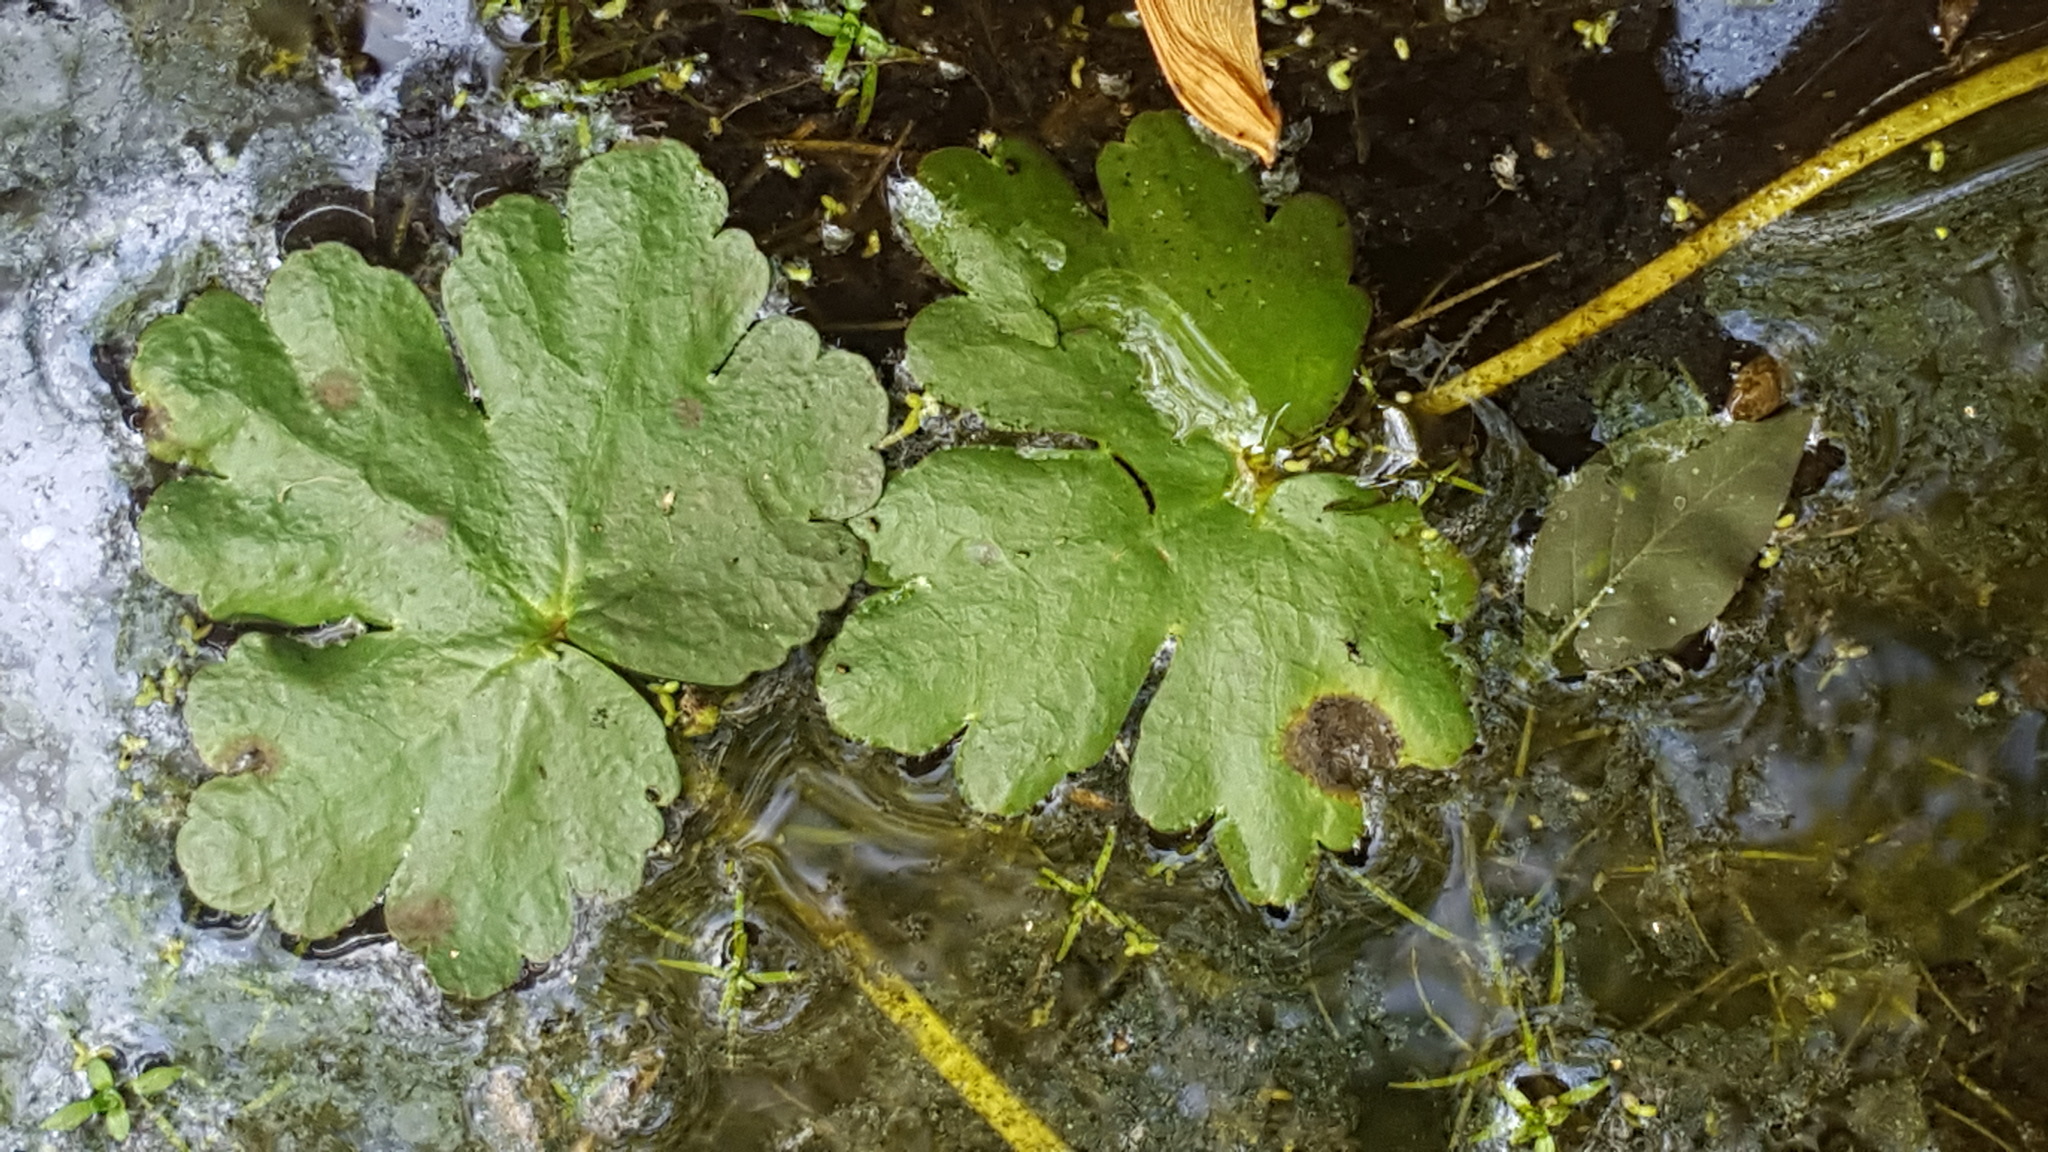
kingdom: Plantae
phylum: Tracheophyta
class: Magnoliopsida
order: Ranunculales
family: Ranunculaceae
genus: Ranunculus
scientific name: Ranunculus sceleratus
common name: Celery-leaved buttercup
